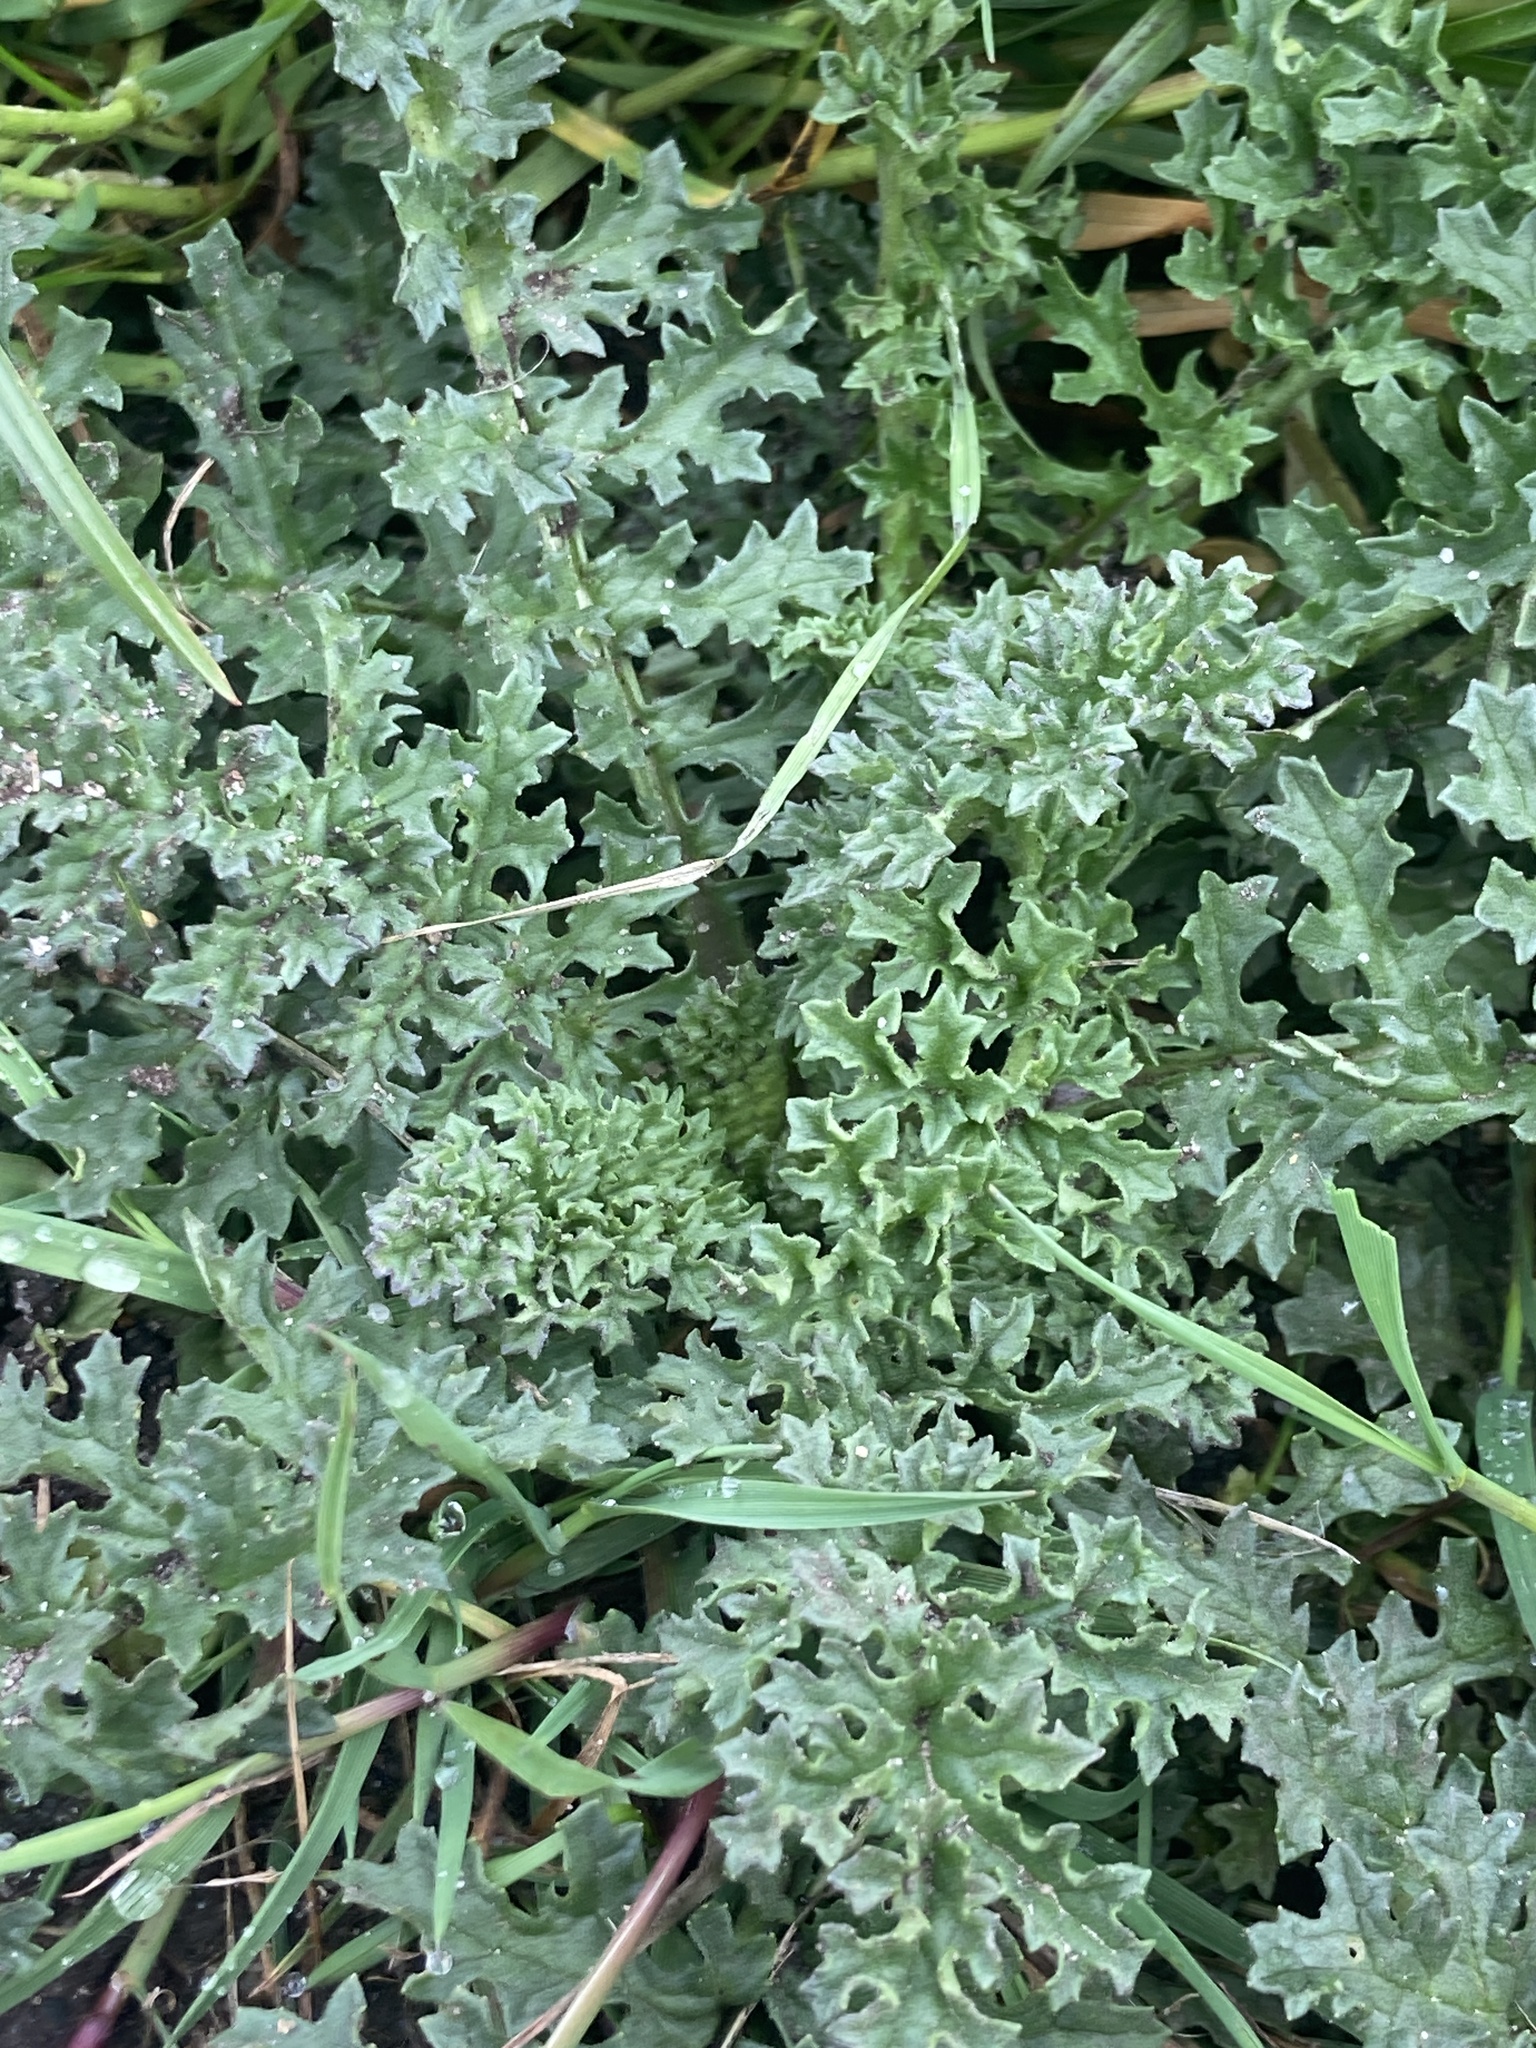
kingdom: Plantae
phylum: Tracheophyta
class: Magnoliopsida
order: Asterales
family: Asteraceae
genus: Jacobaea
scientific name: Jacobaea vulgaris
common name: Stinking willie
